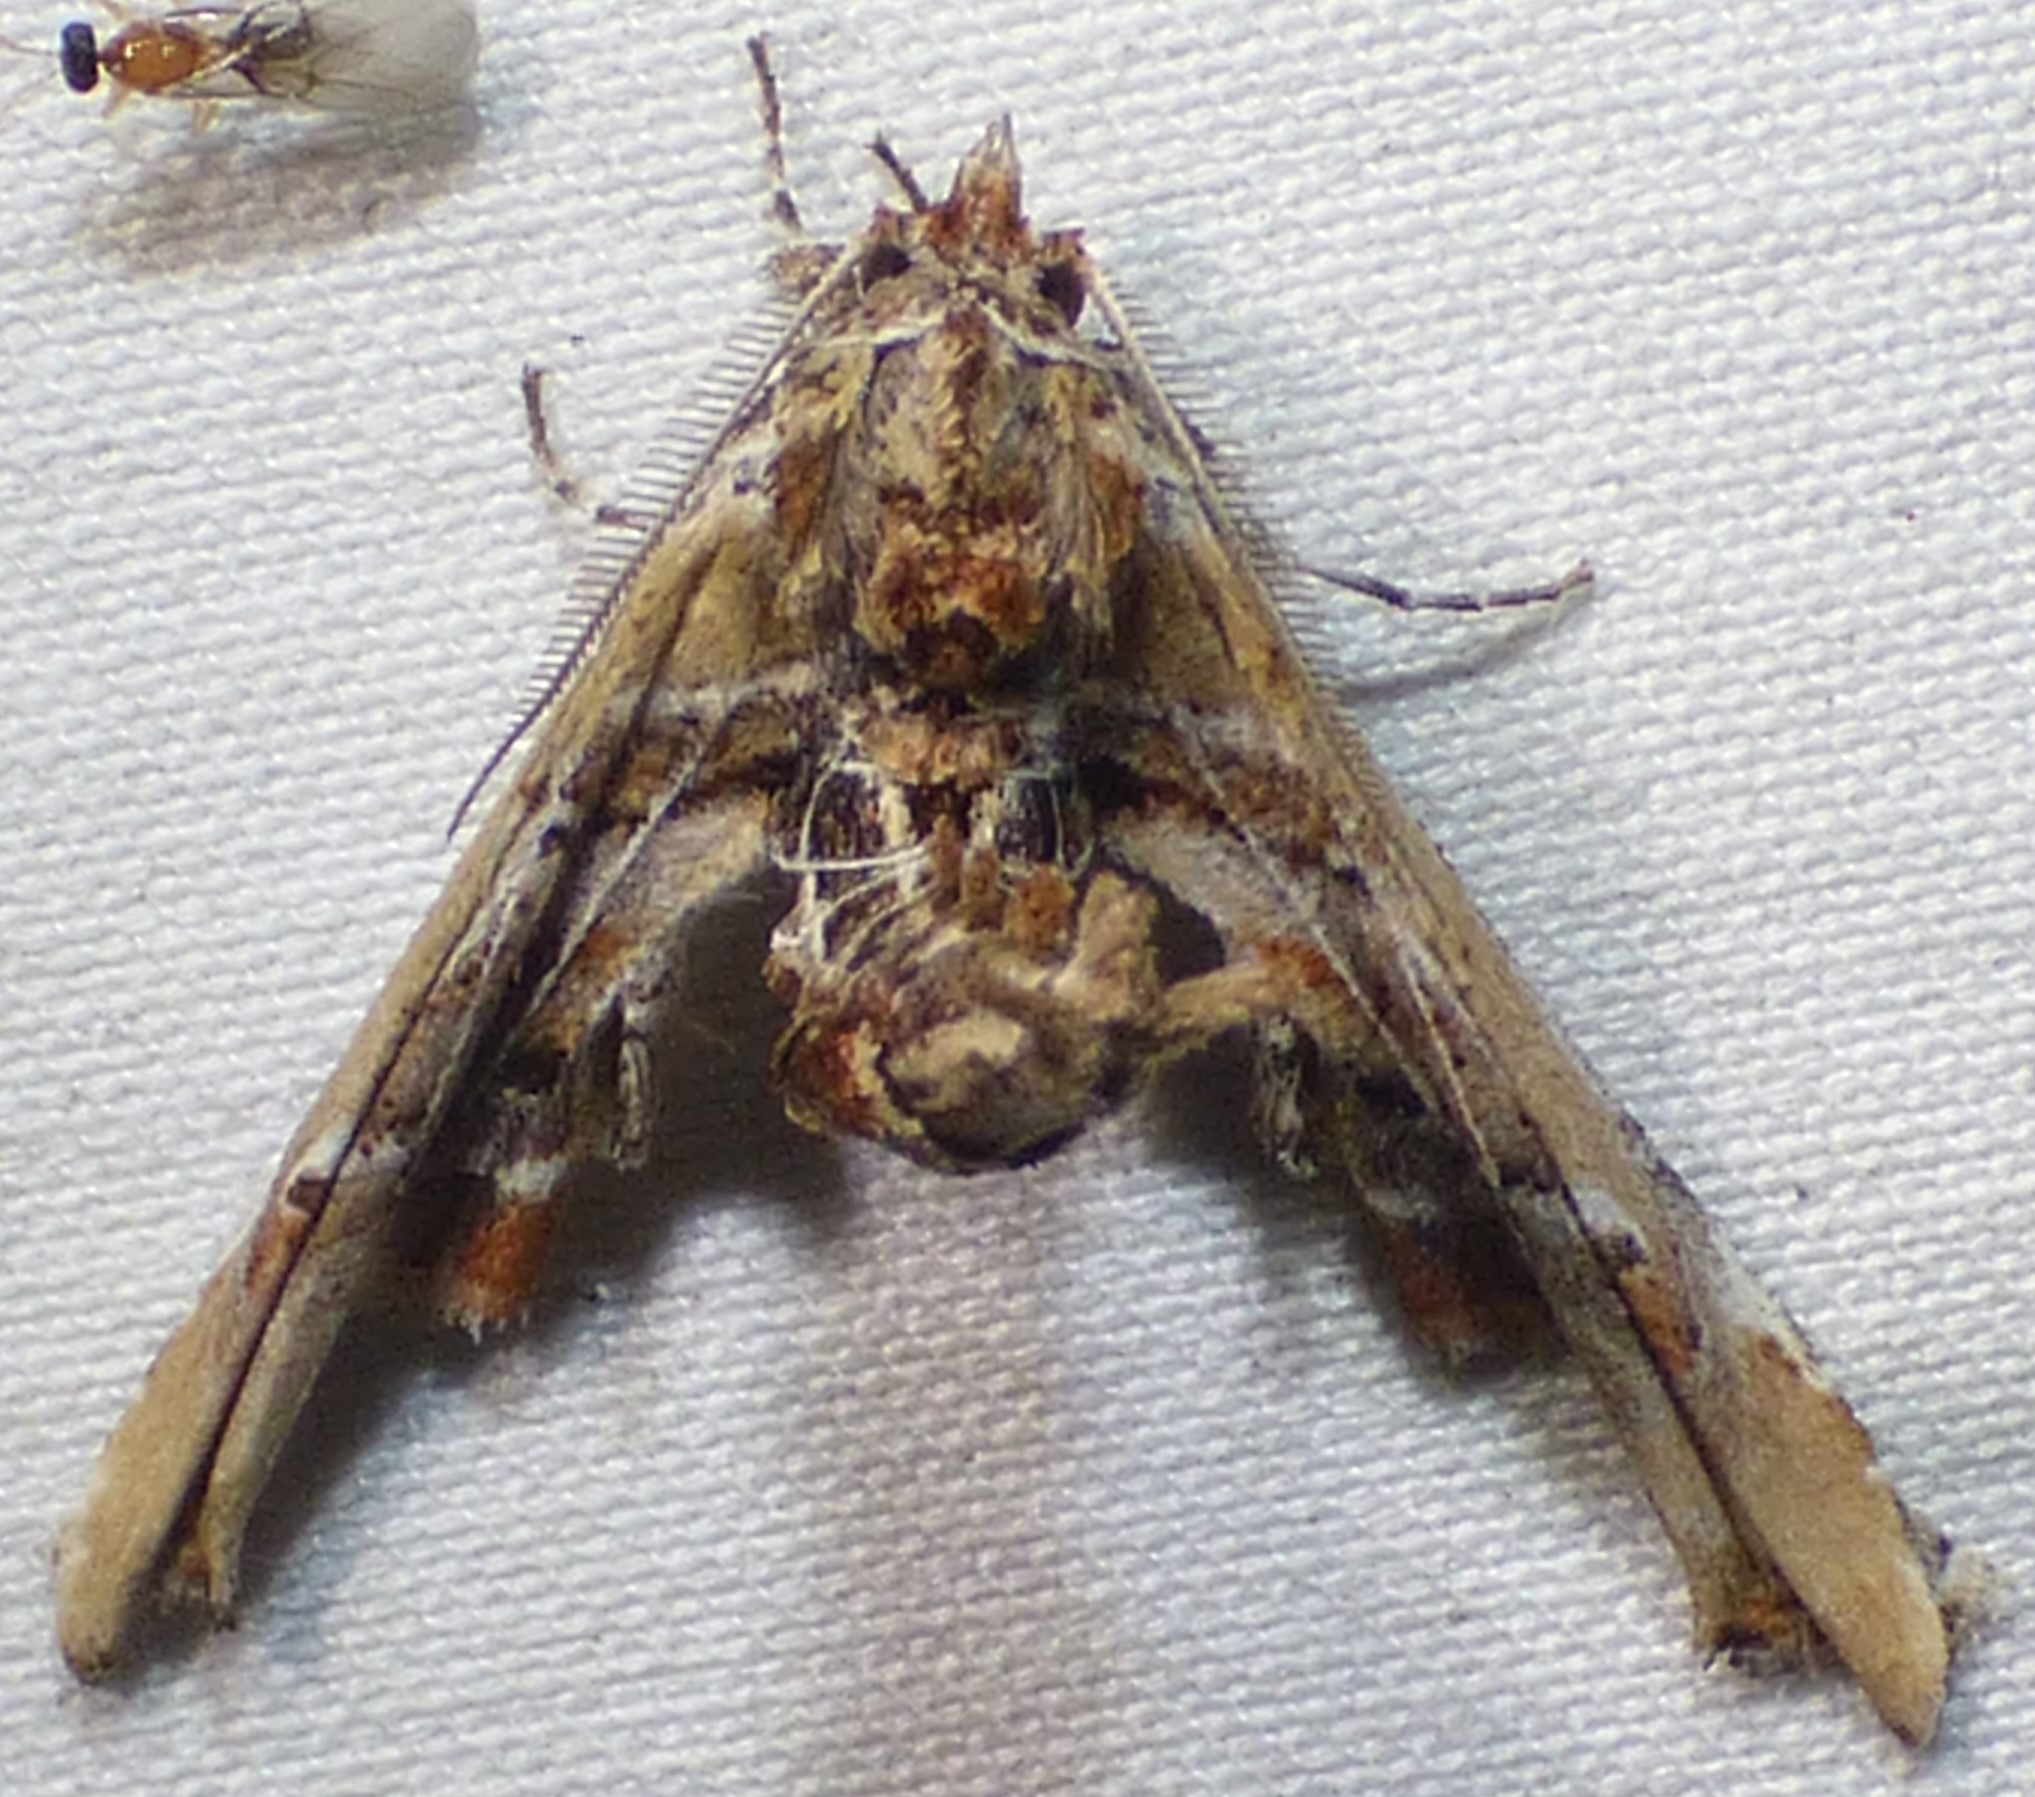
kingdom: Animalia
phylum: Arthropoda
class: Insecta
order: Lepidoptera
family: Euteliidae
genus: Marathyssa
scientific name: Marathyssa basalis
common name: Light marathyssa moth
